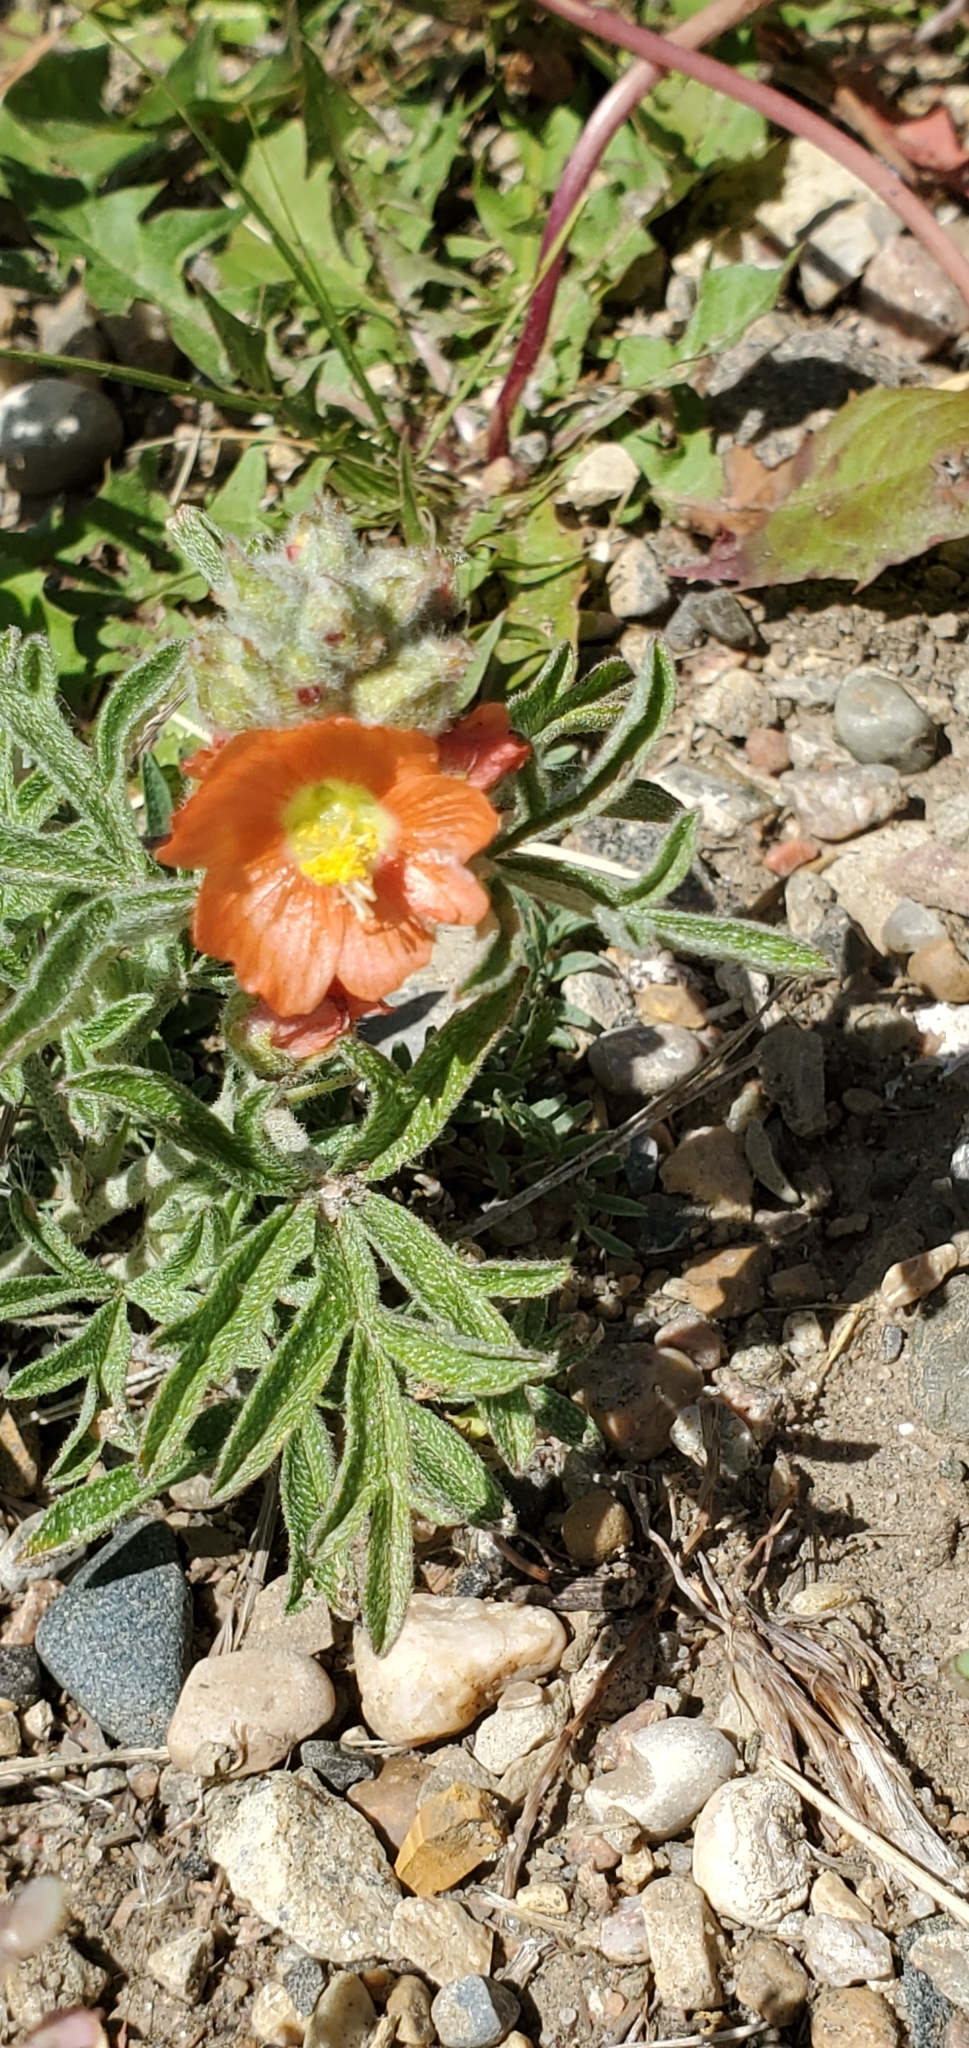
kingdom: Plantae
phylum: Tracheophyta
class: Magnoliopsida
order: Malvales
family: Malvaceae
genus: Sphaeralcea
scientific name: Sphaeralcea coccinea
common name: Moss-rose
